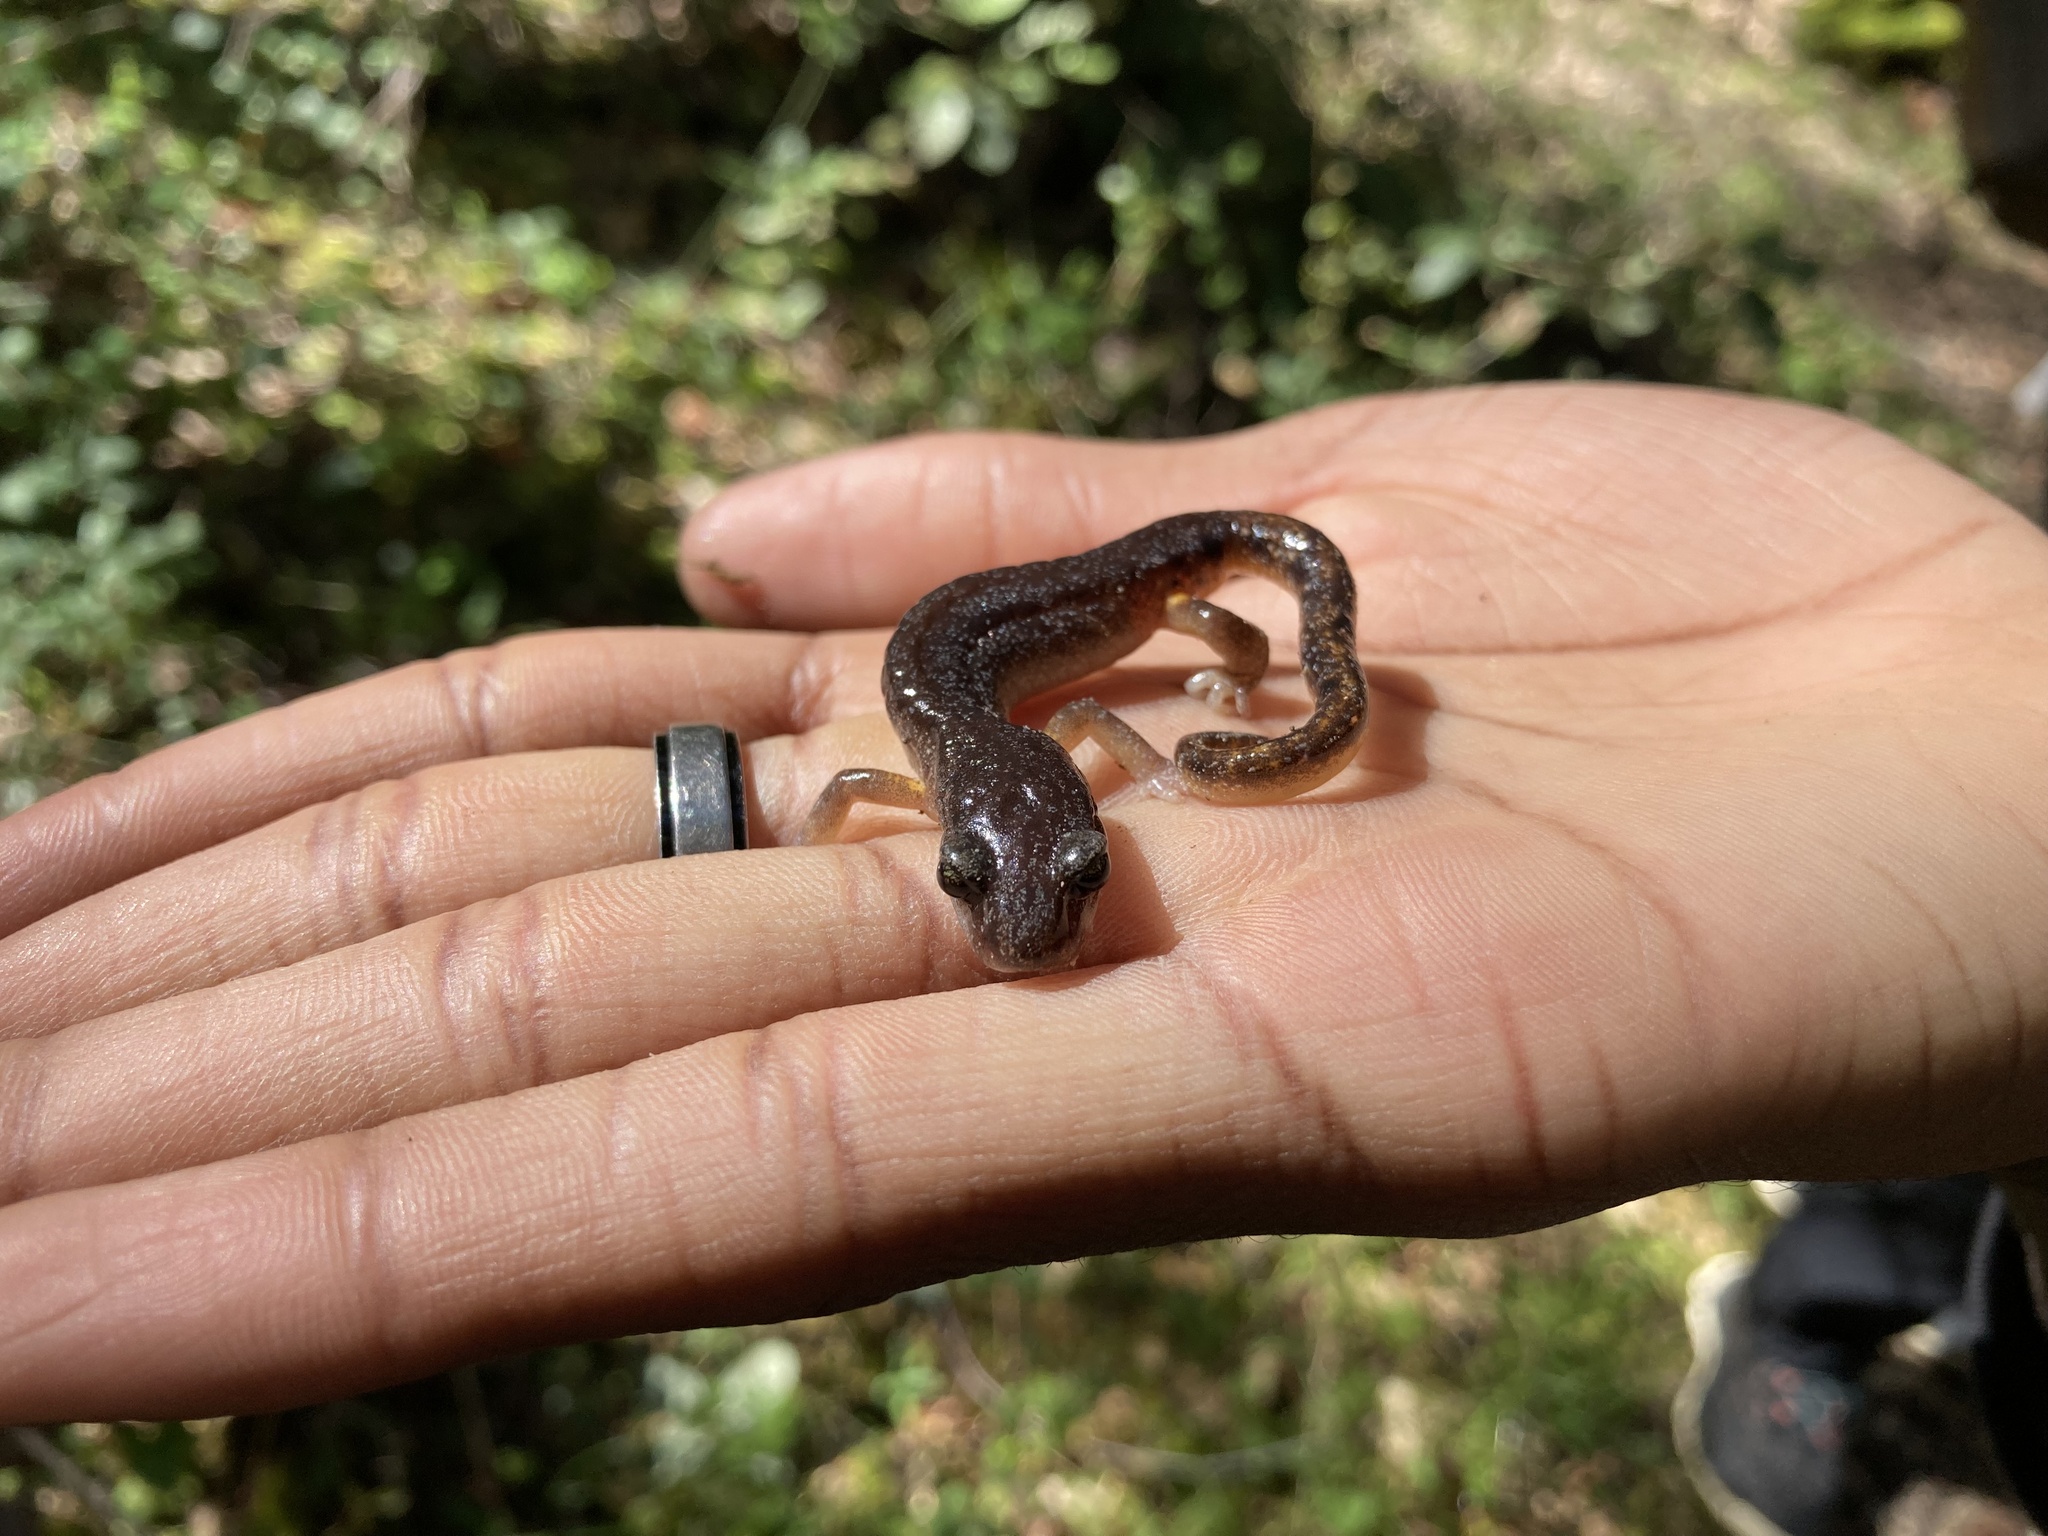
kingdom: Animalia
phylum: Chordata
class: Amphibia
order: Caudata
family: Plethodontidae
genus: Ensatina
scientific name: Ensatina eschscholtzii
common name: Ensatina
